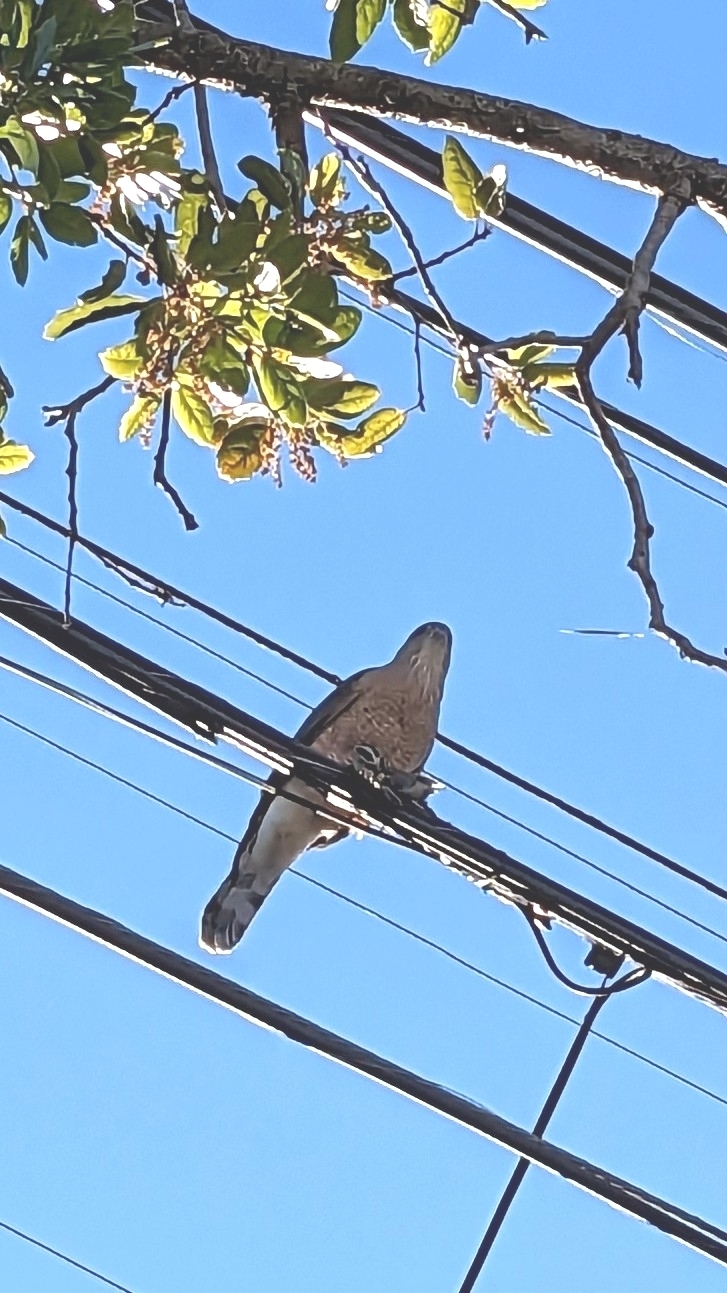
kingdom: Animalia
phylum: Chordata
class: Aves
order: Passeriformes
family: Passerellidae
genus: Zonotrichia
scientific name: Zonotrichia leucophrys
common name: White-crowned sparrow
